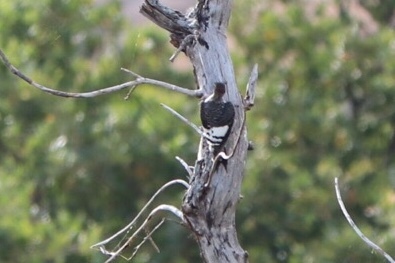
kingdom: Animalia
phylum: Chordata
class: Aves
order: Piciformes
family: Picidae
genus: Melanerpes
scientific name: Melanerpes erythrocephalus
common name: Red-headed woodpecker
